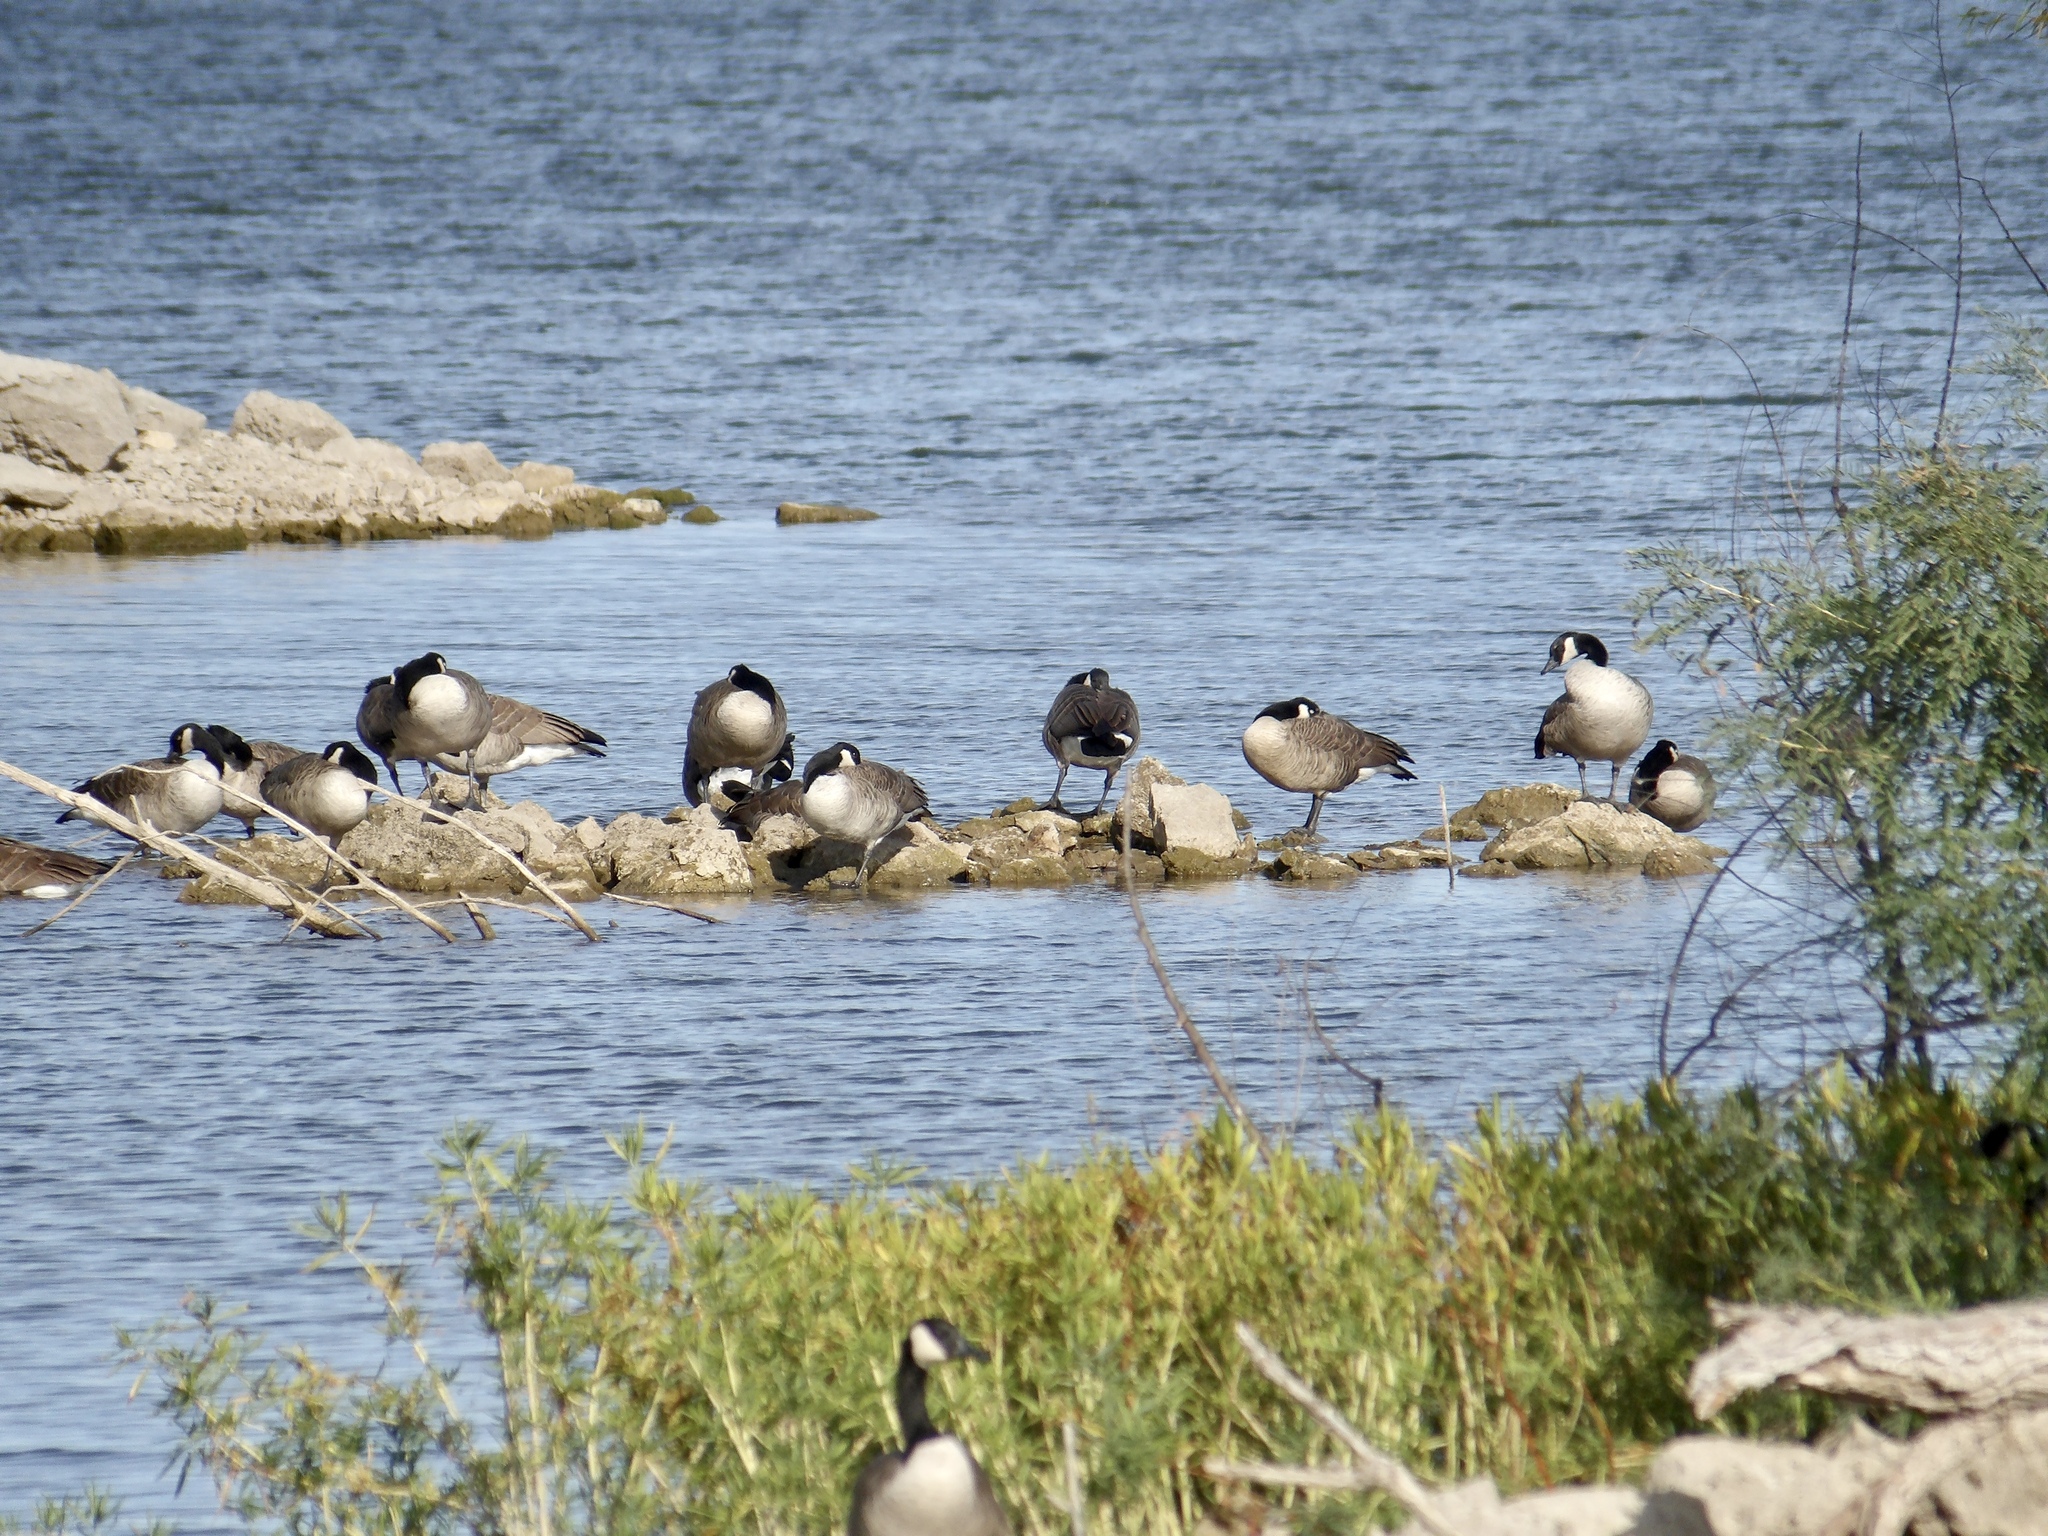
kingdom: Animalia
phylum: Chordata
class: Aves
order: Anseriformes
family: Anatidae
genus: Branta
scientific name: Branta canadensis
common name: Canada goose
